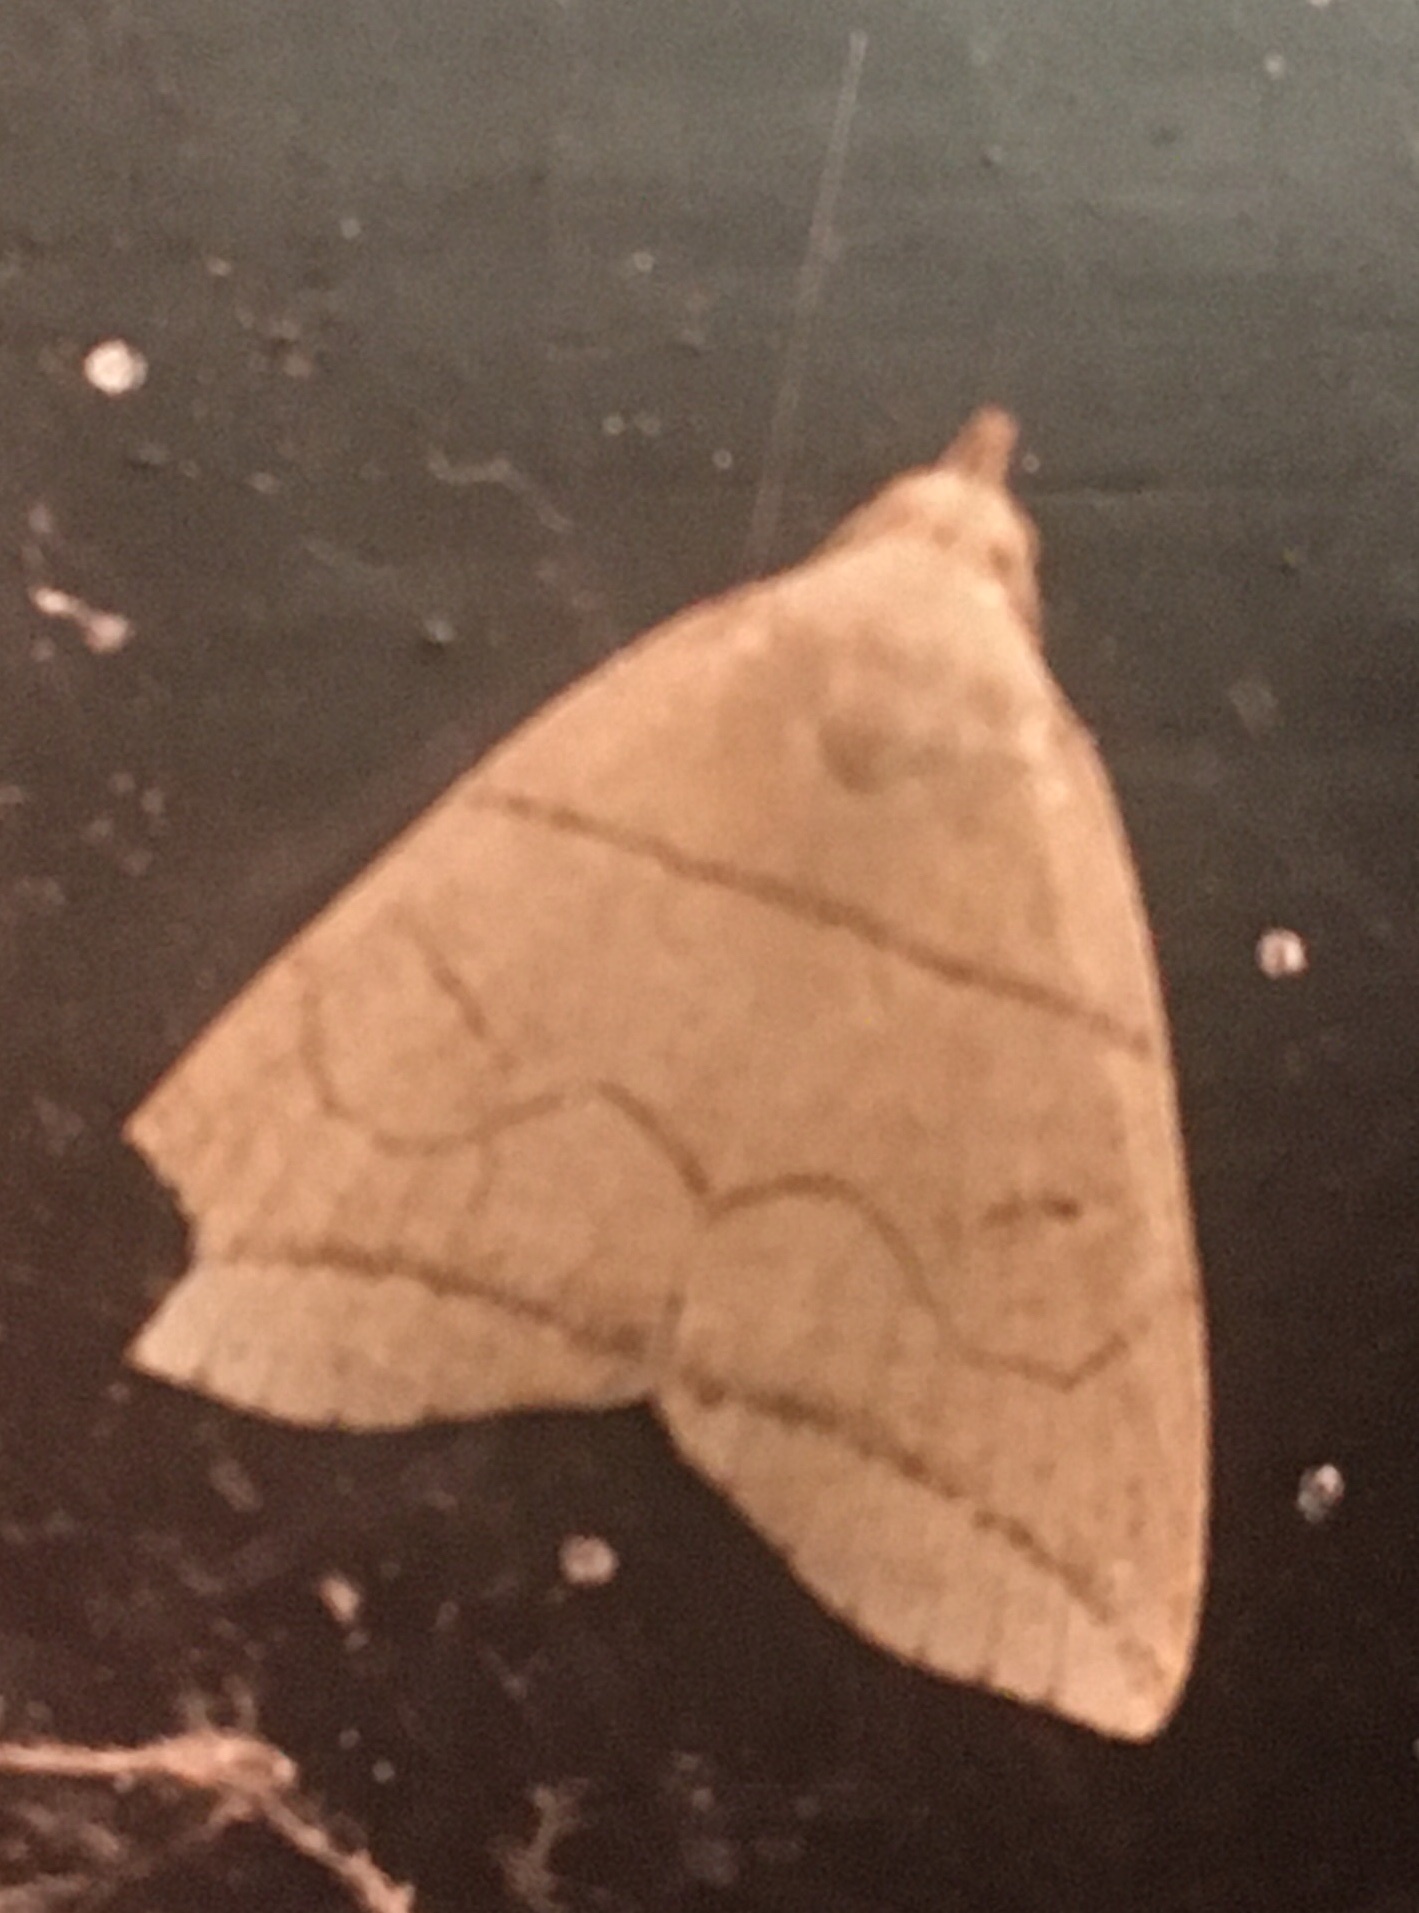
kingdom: Animalia
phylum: Arthropoda
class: Insecta
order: Lepidoptera
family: Erebidae
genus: Herminia
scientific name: Herminia grisealis
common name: Small fan-foot
